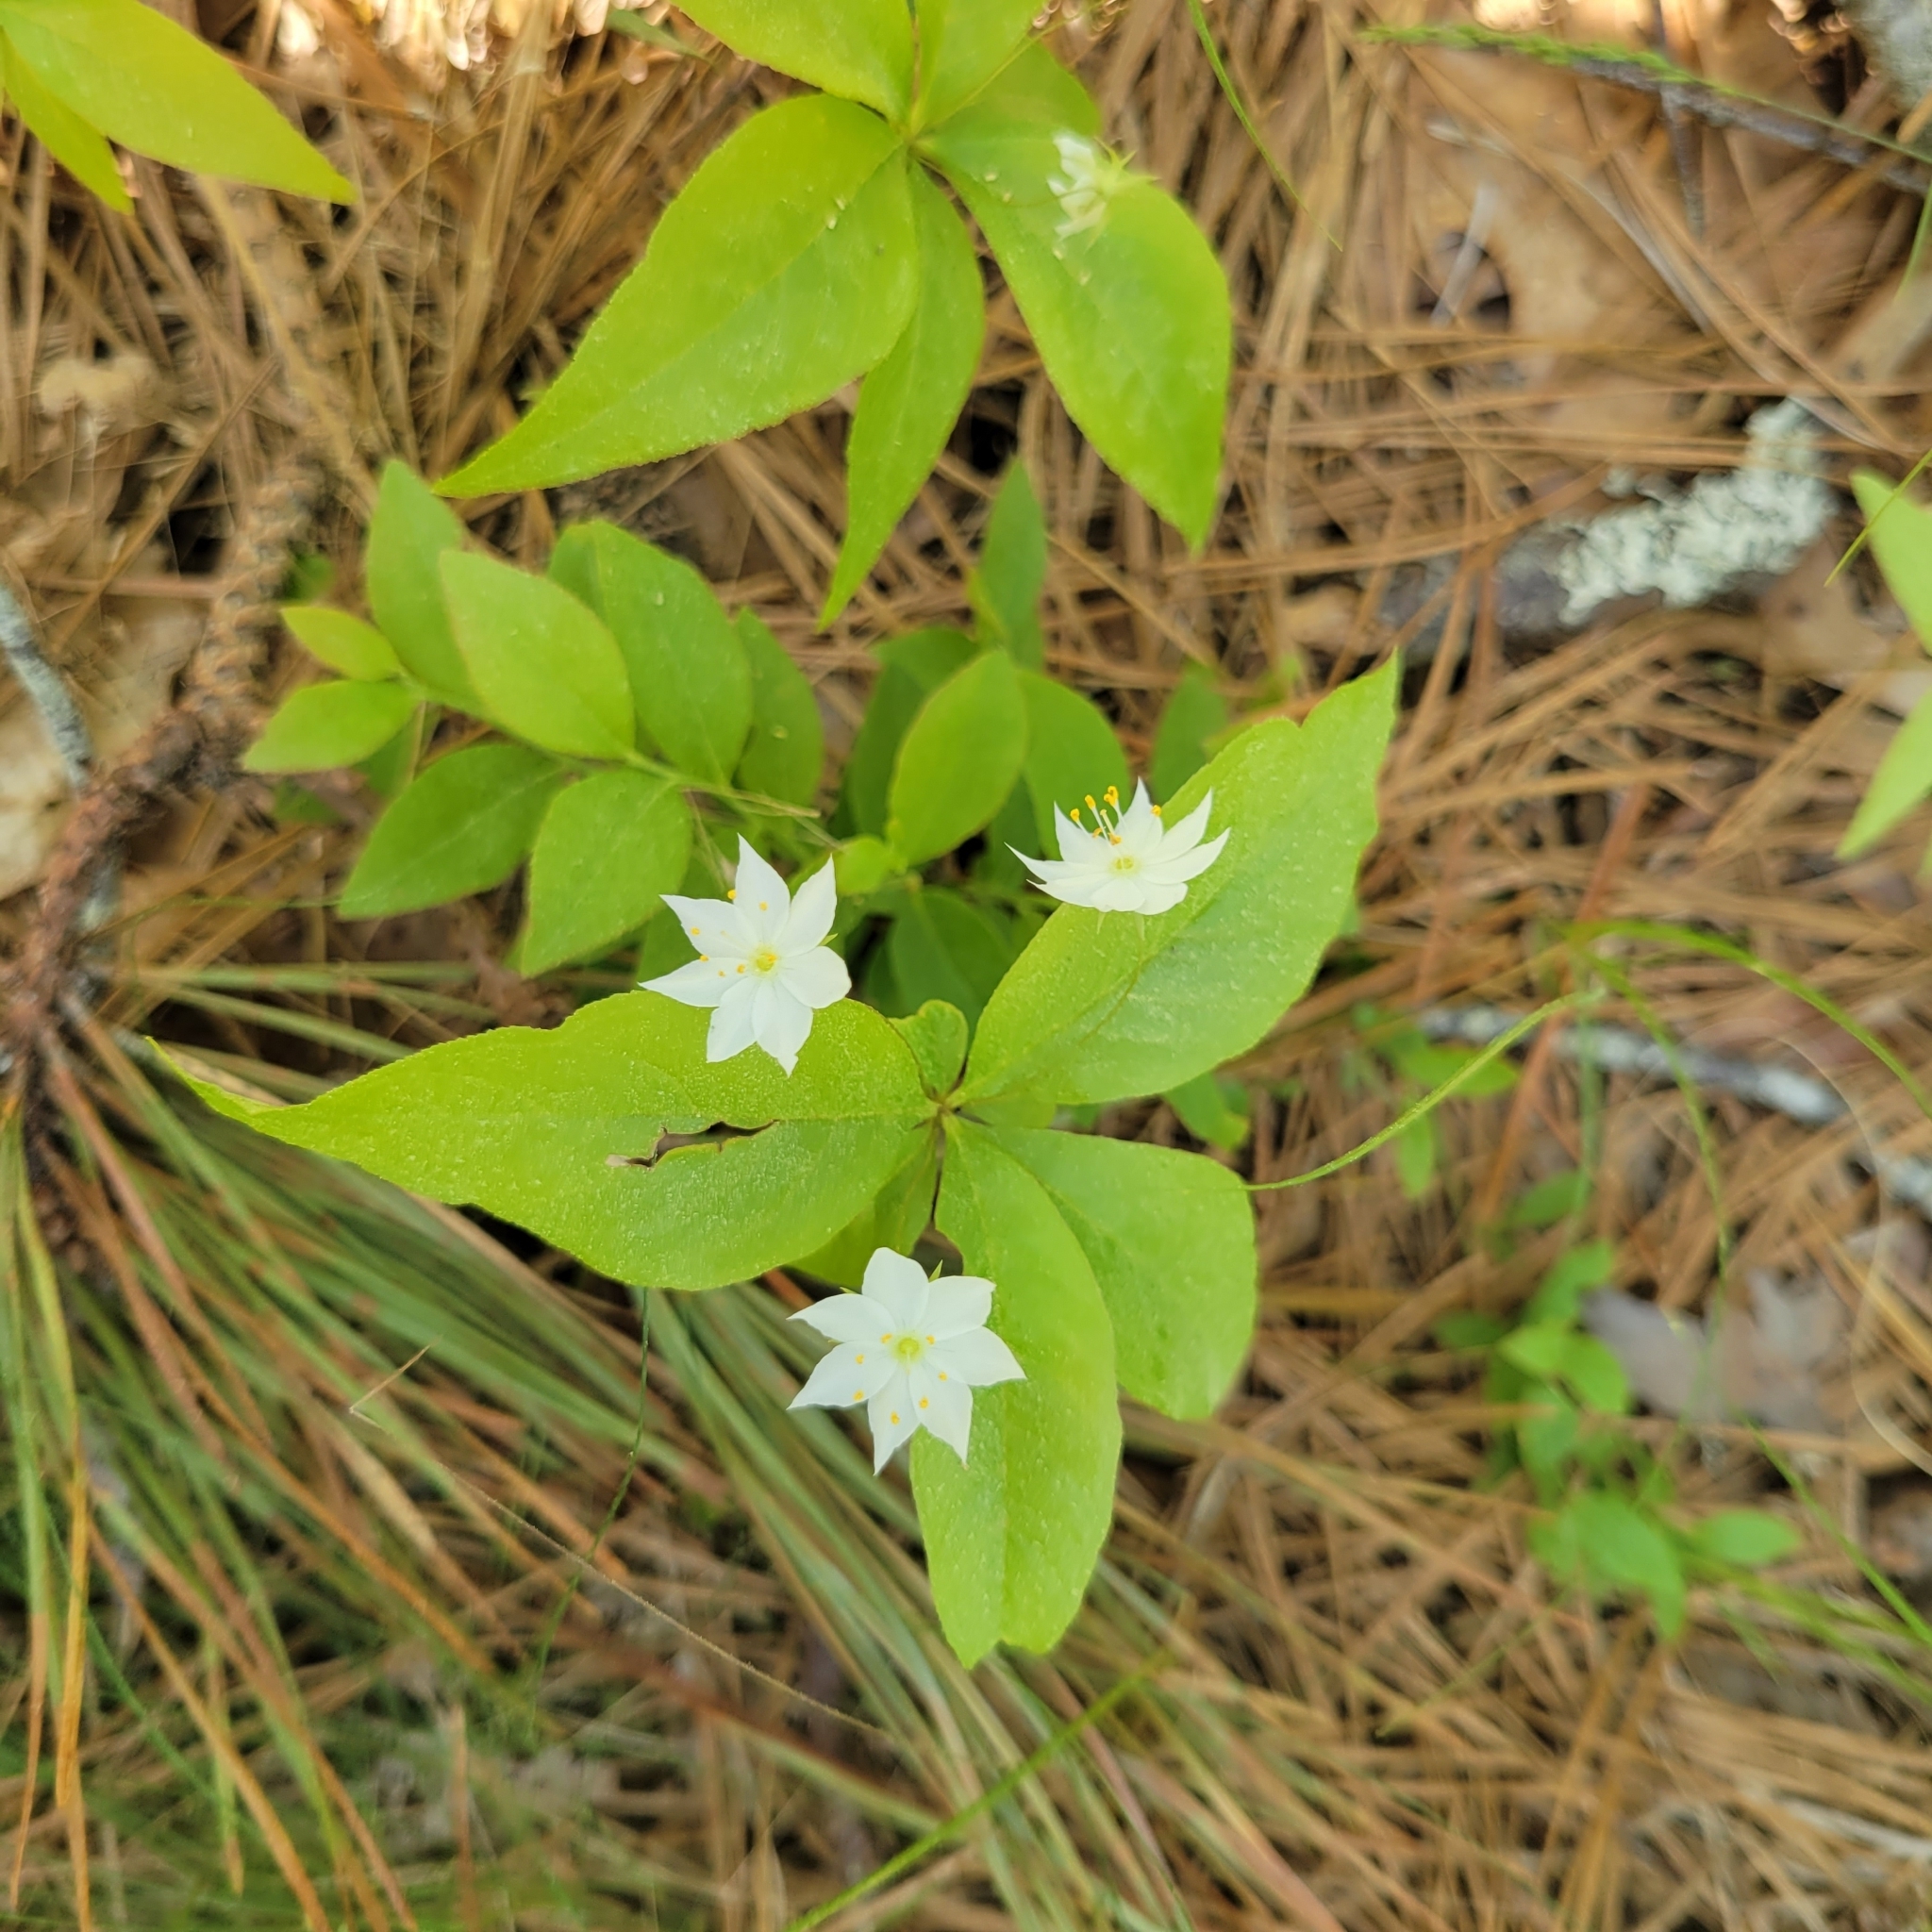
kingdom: Plantae
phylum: Tracheophyta
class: Magnoliopsida
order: Ericales
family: Primulaceae
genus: Lysimachia
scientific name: Lysimachia borealis
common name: American starflower
